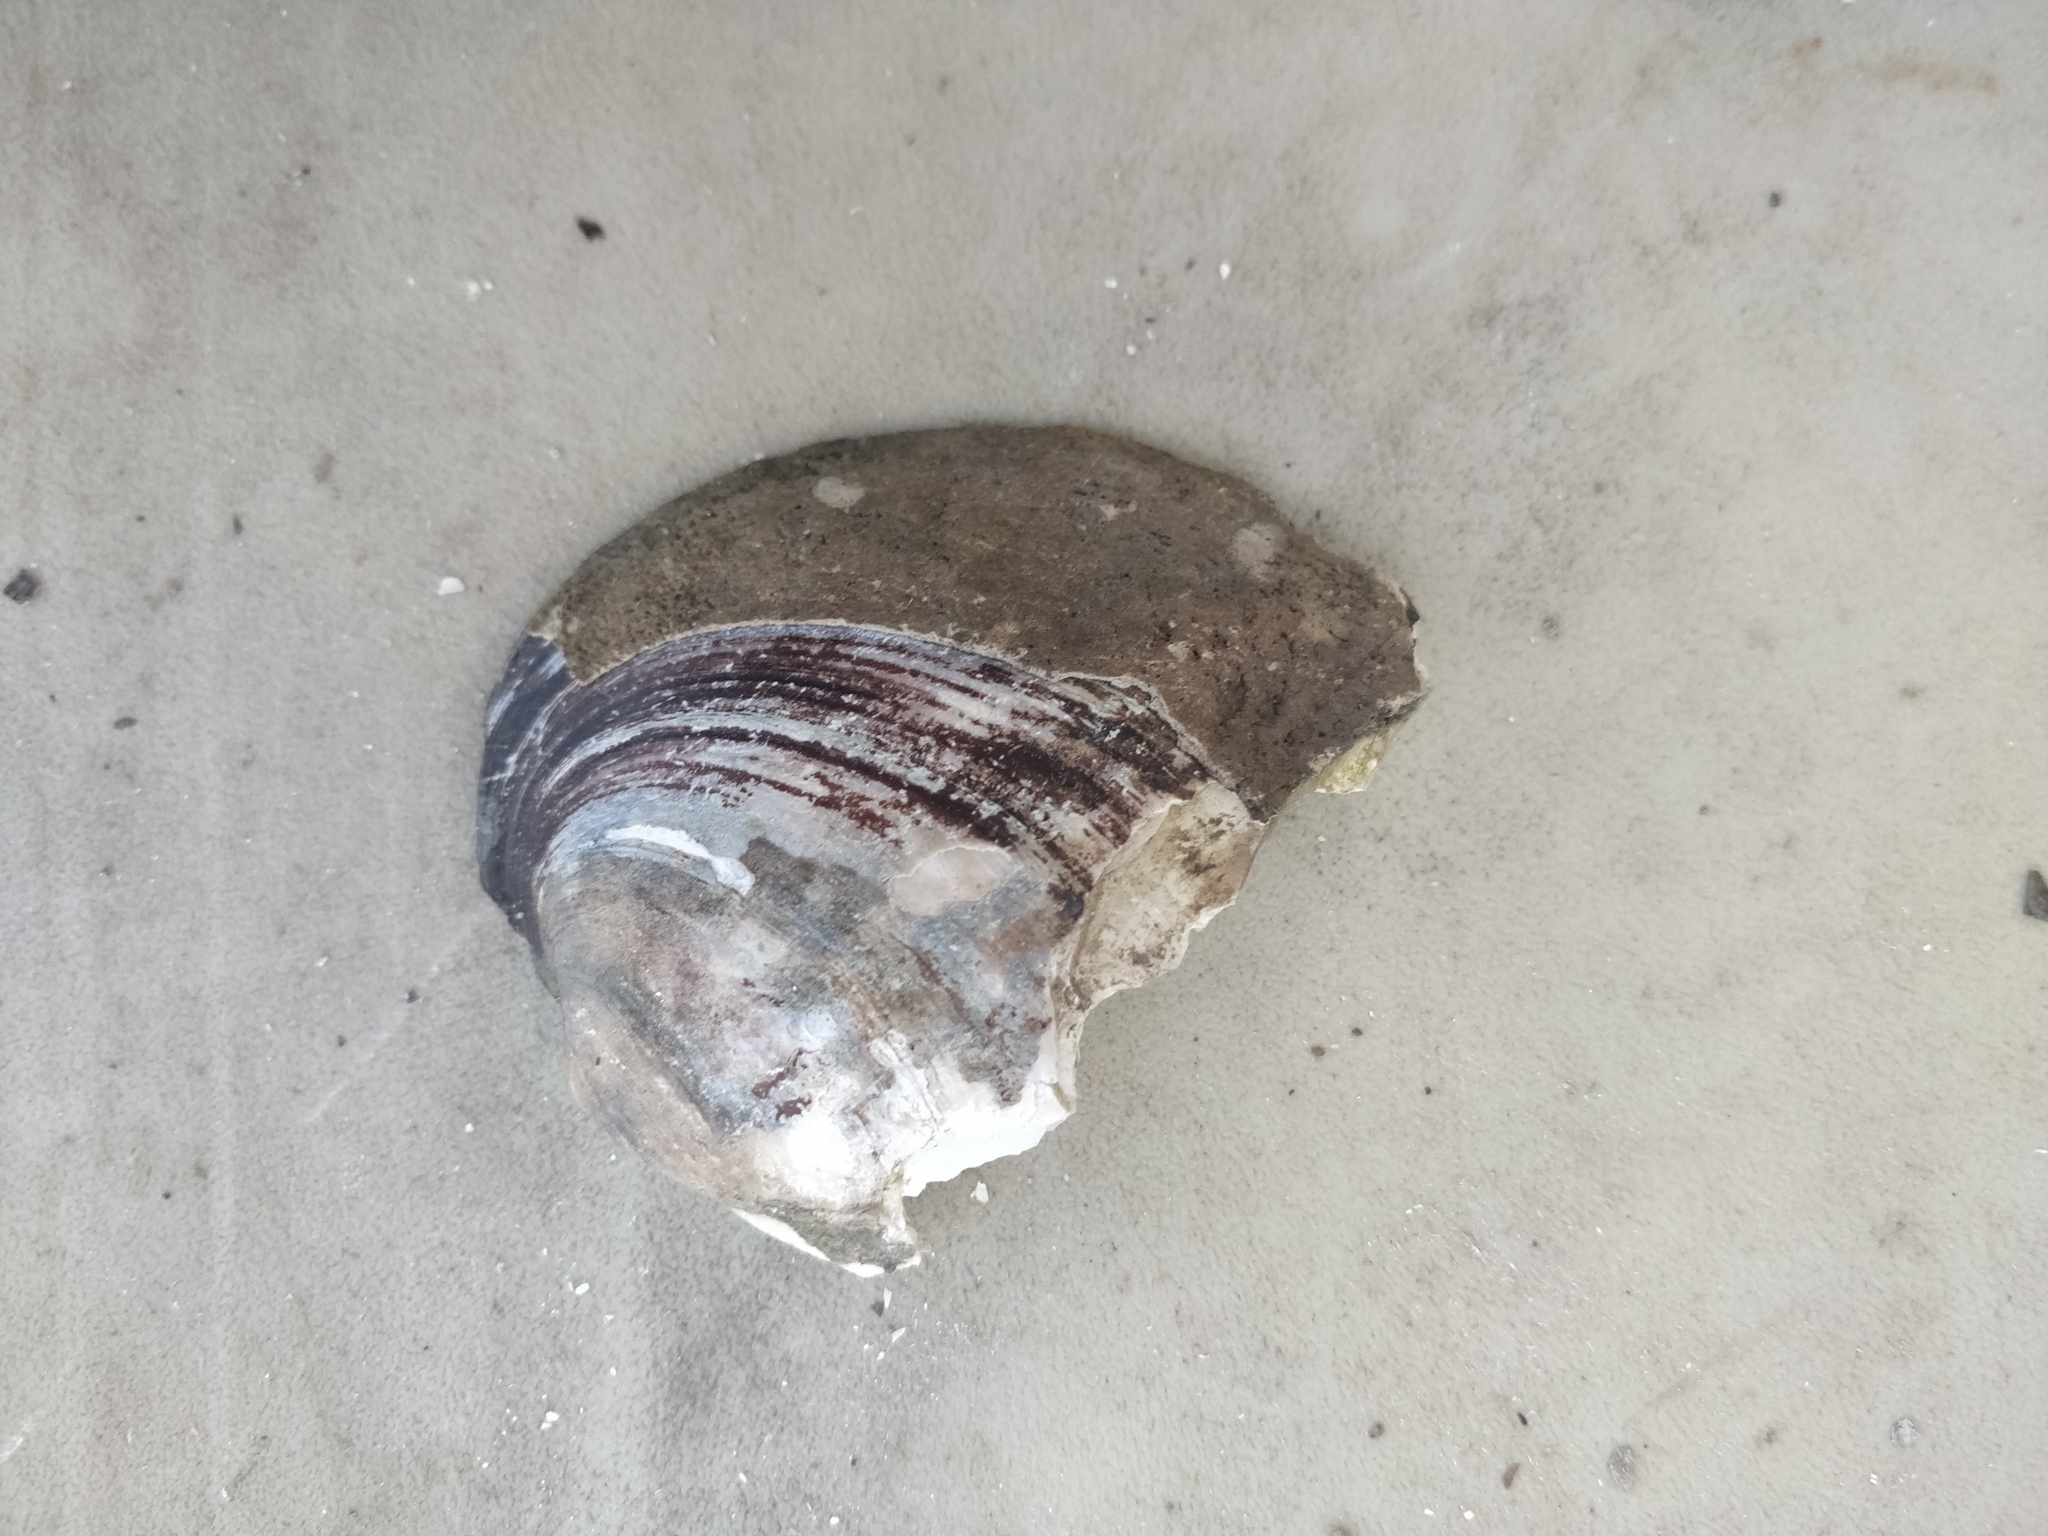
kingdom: Animalia
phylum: Mollusca
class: Bivalvia
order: Unionida
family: Unionidae
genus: Amblema
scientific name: Amblema plicata
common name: Threeridge
